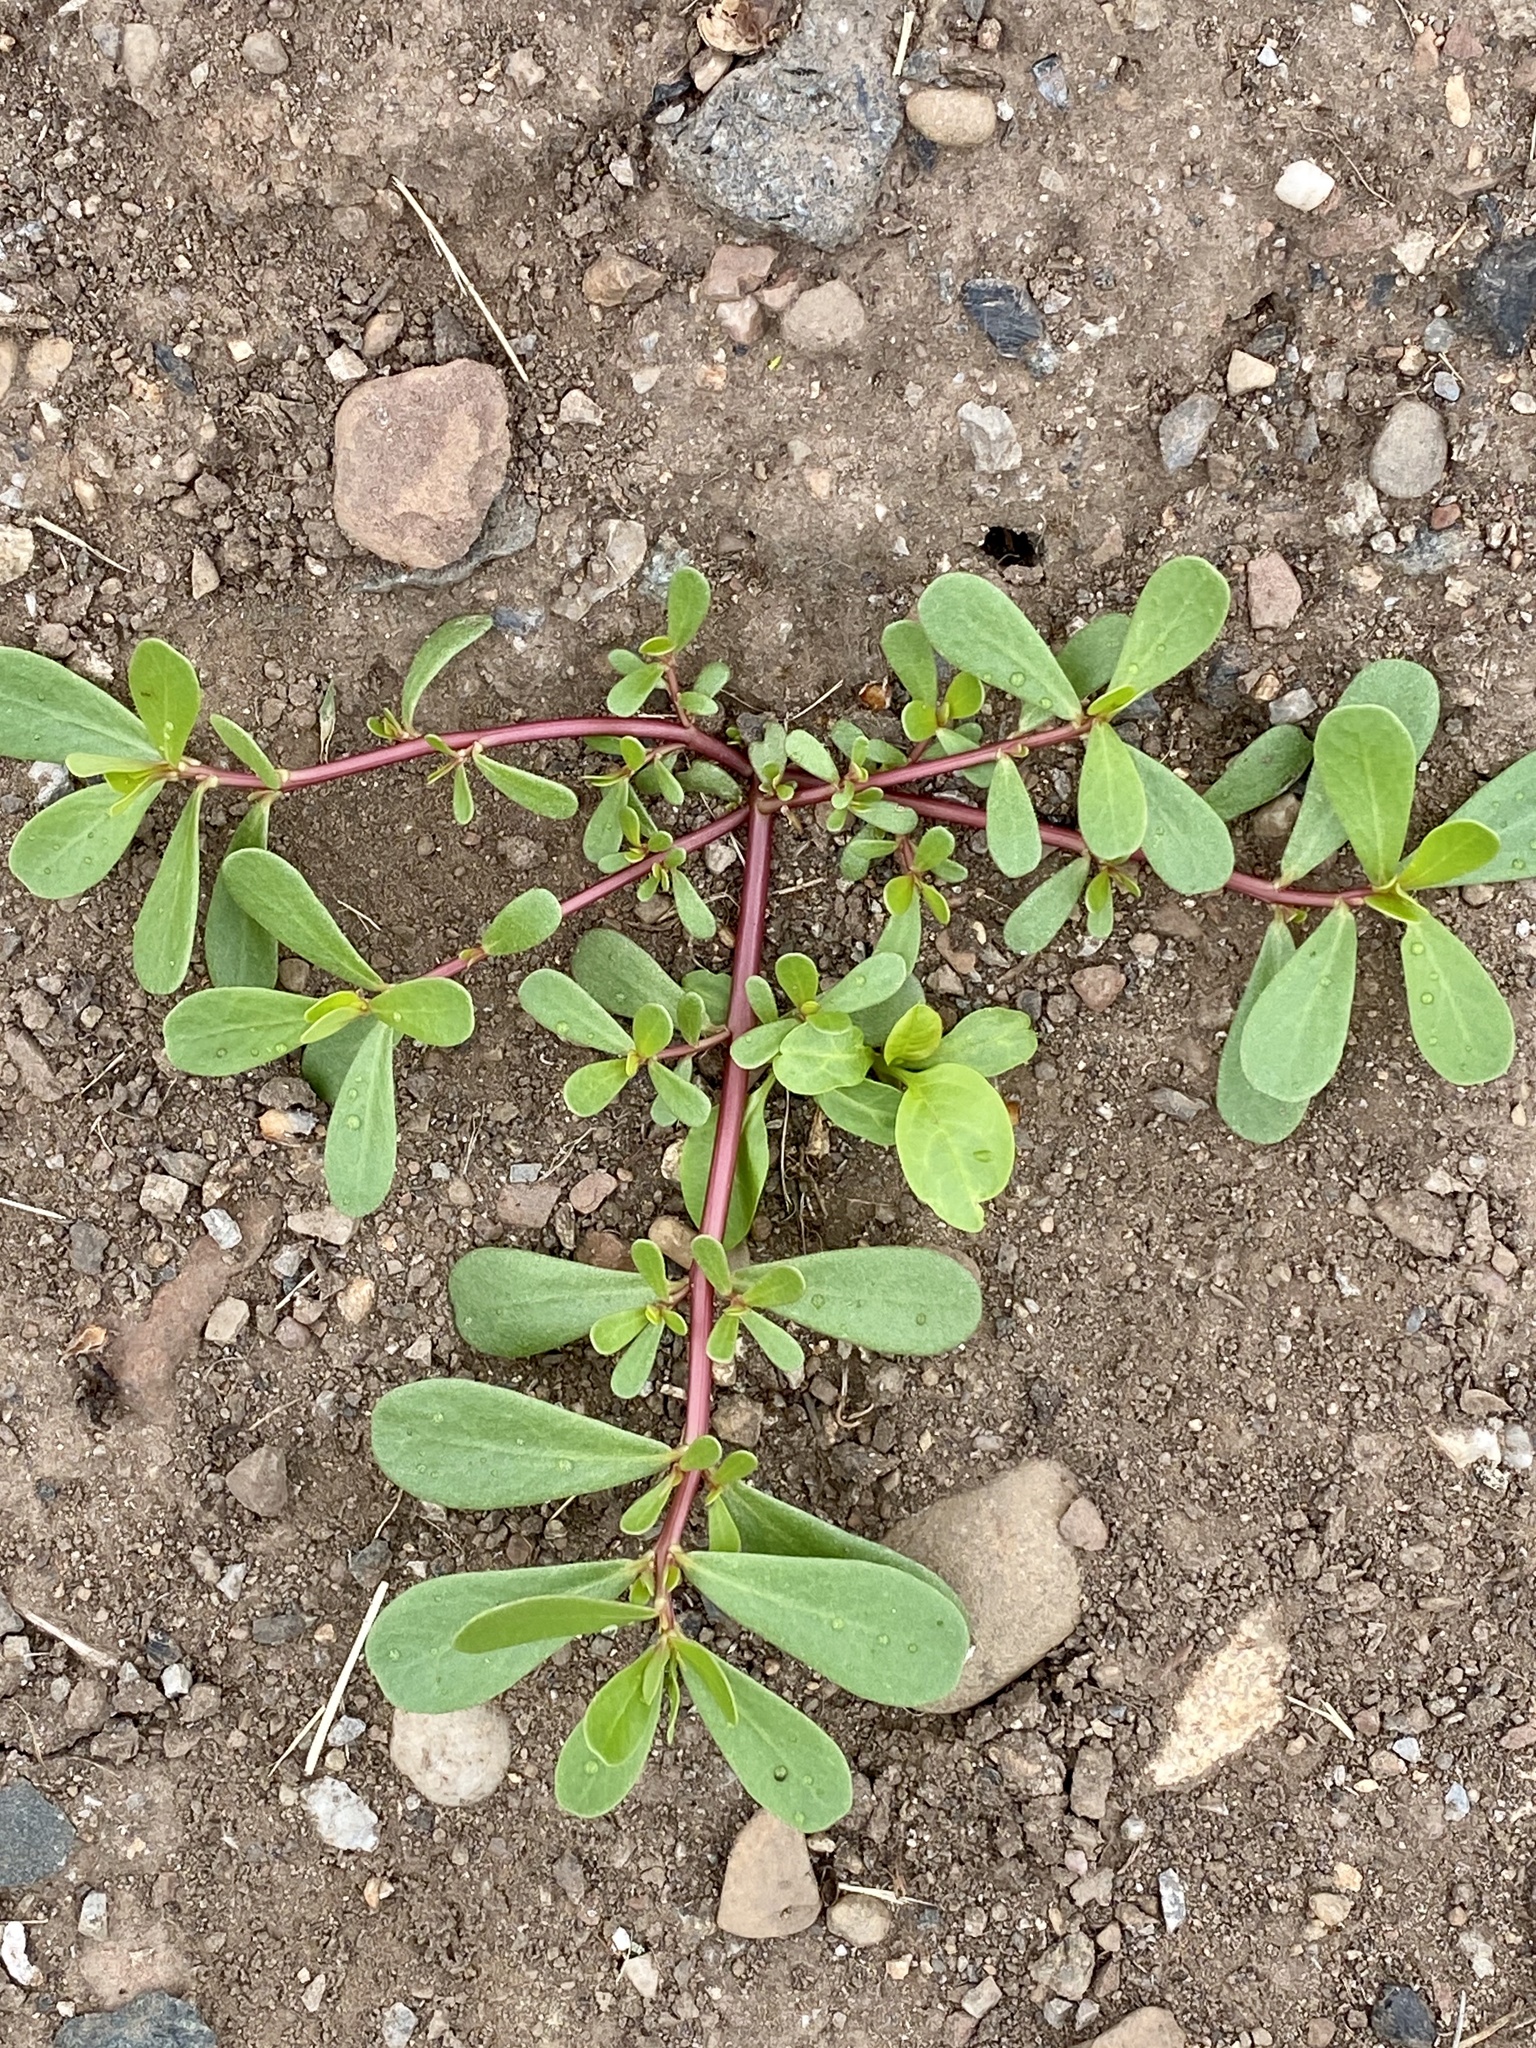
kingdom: Plantae
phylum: Tracheophyta
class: Magnoliopsida
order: Caryophyllales
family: Portulacaceae
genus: Portulaca
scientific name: Portulaca oleracea
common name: Common purslane
